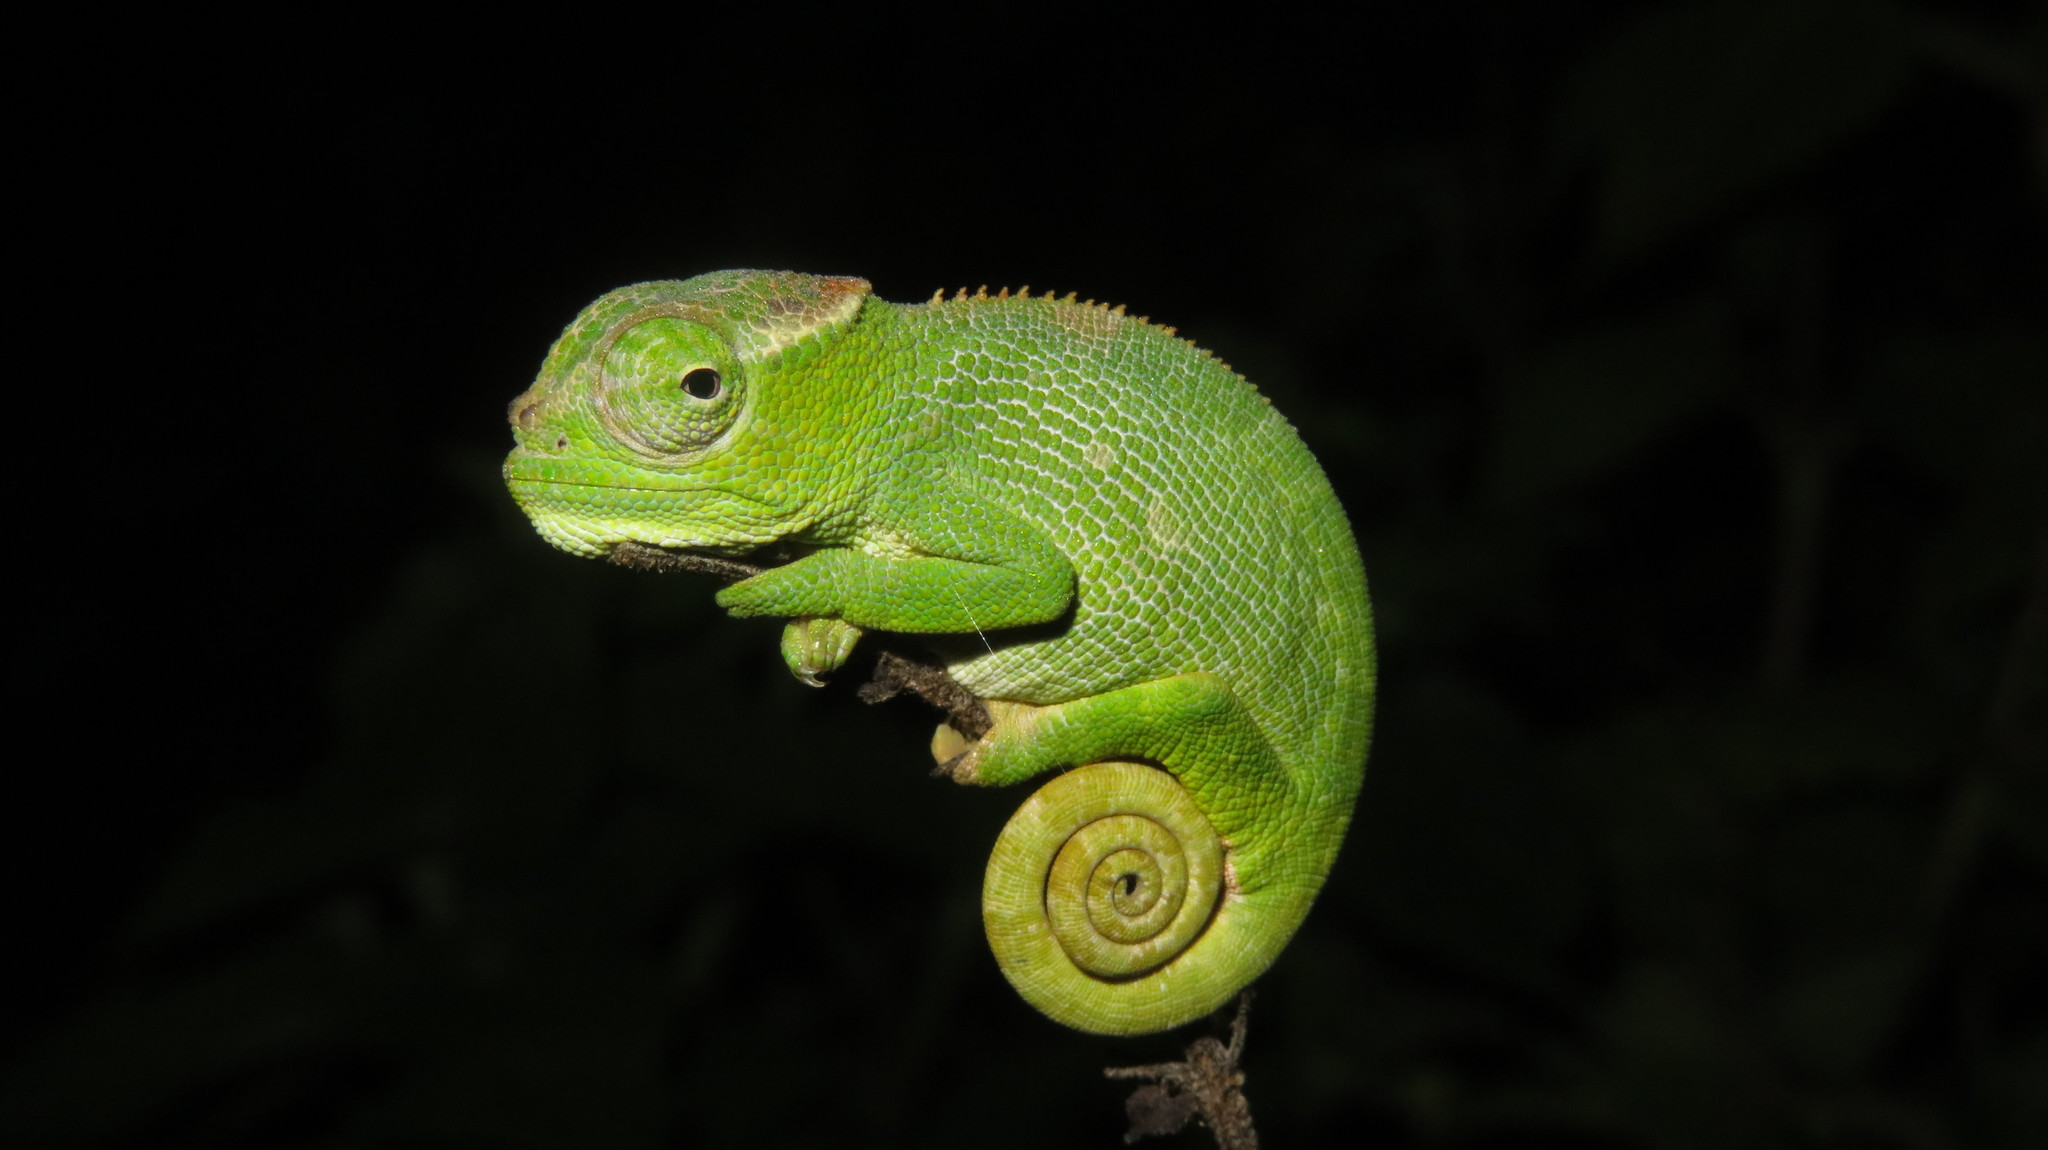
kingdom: Animalia
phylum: Chordata
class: Squamata
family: Chamaeleonidae
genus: Kinyongia
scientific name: Kinyongia multituberculata
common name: West usambara blade-horned chameleon
